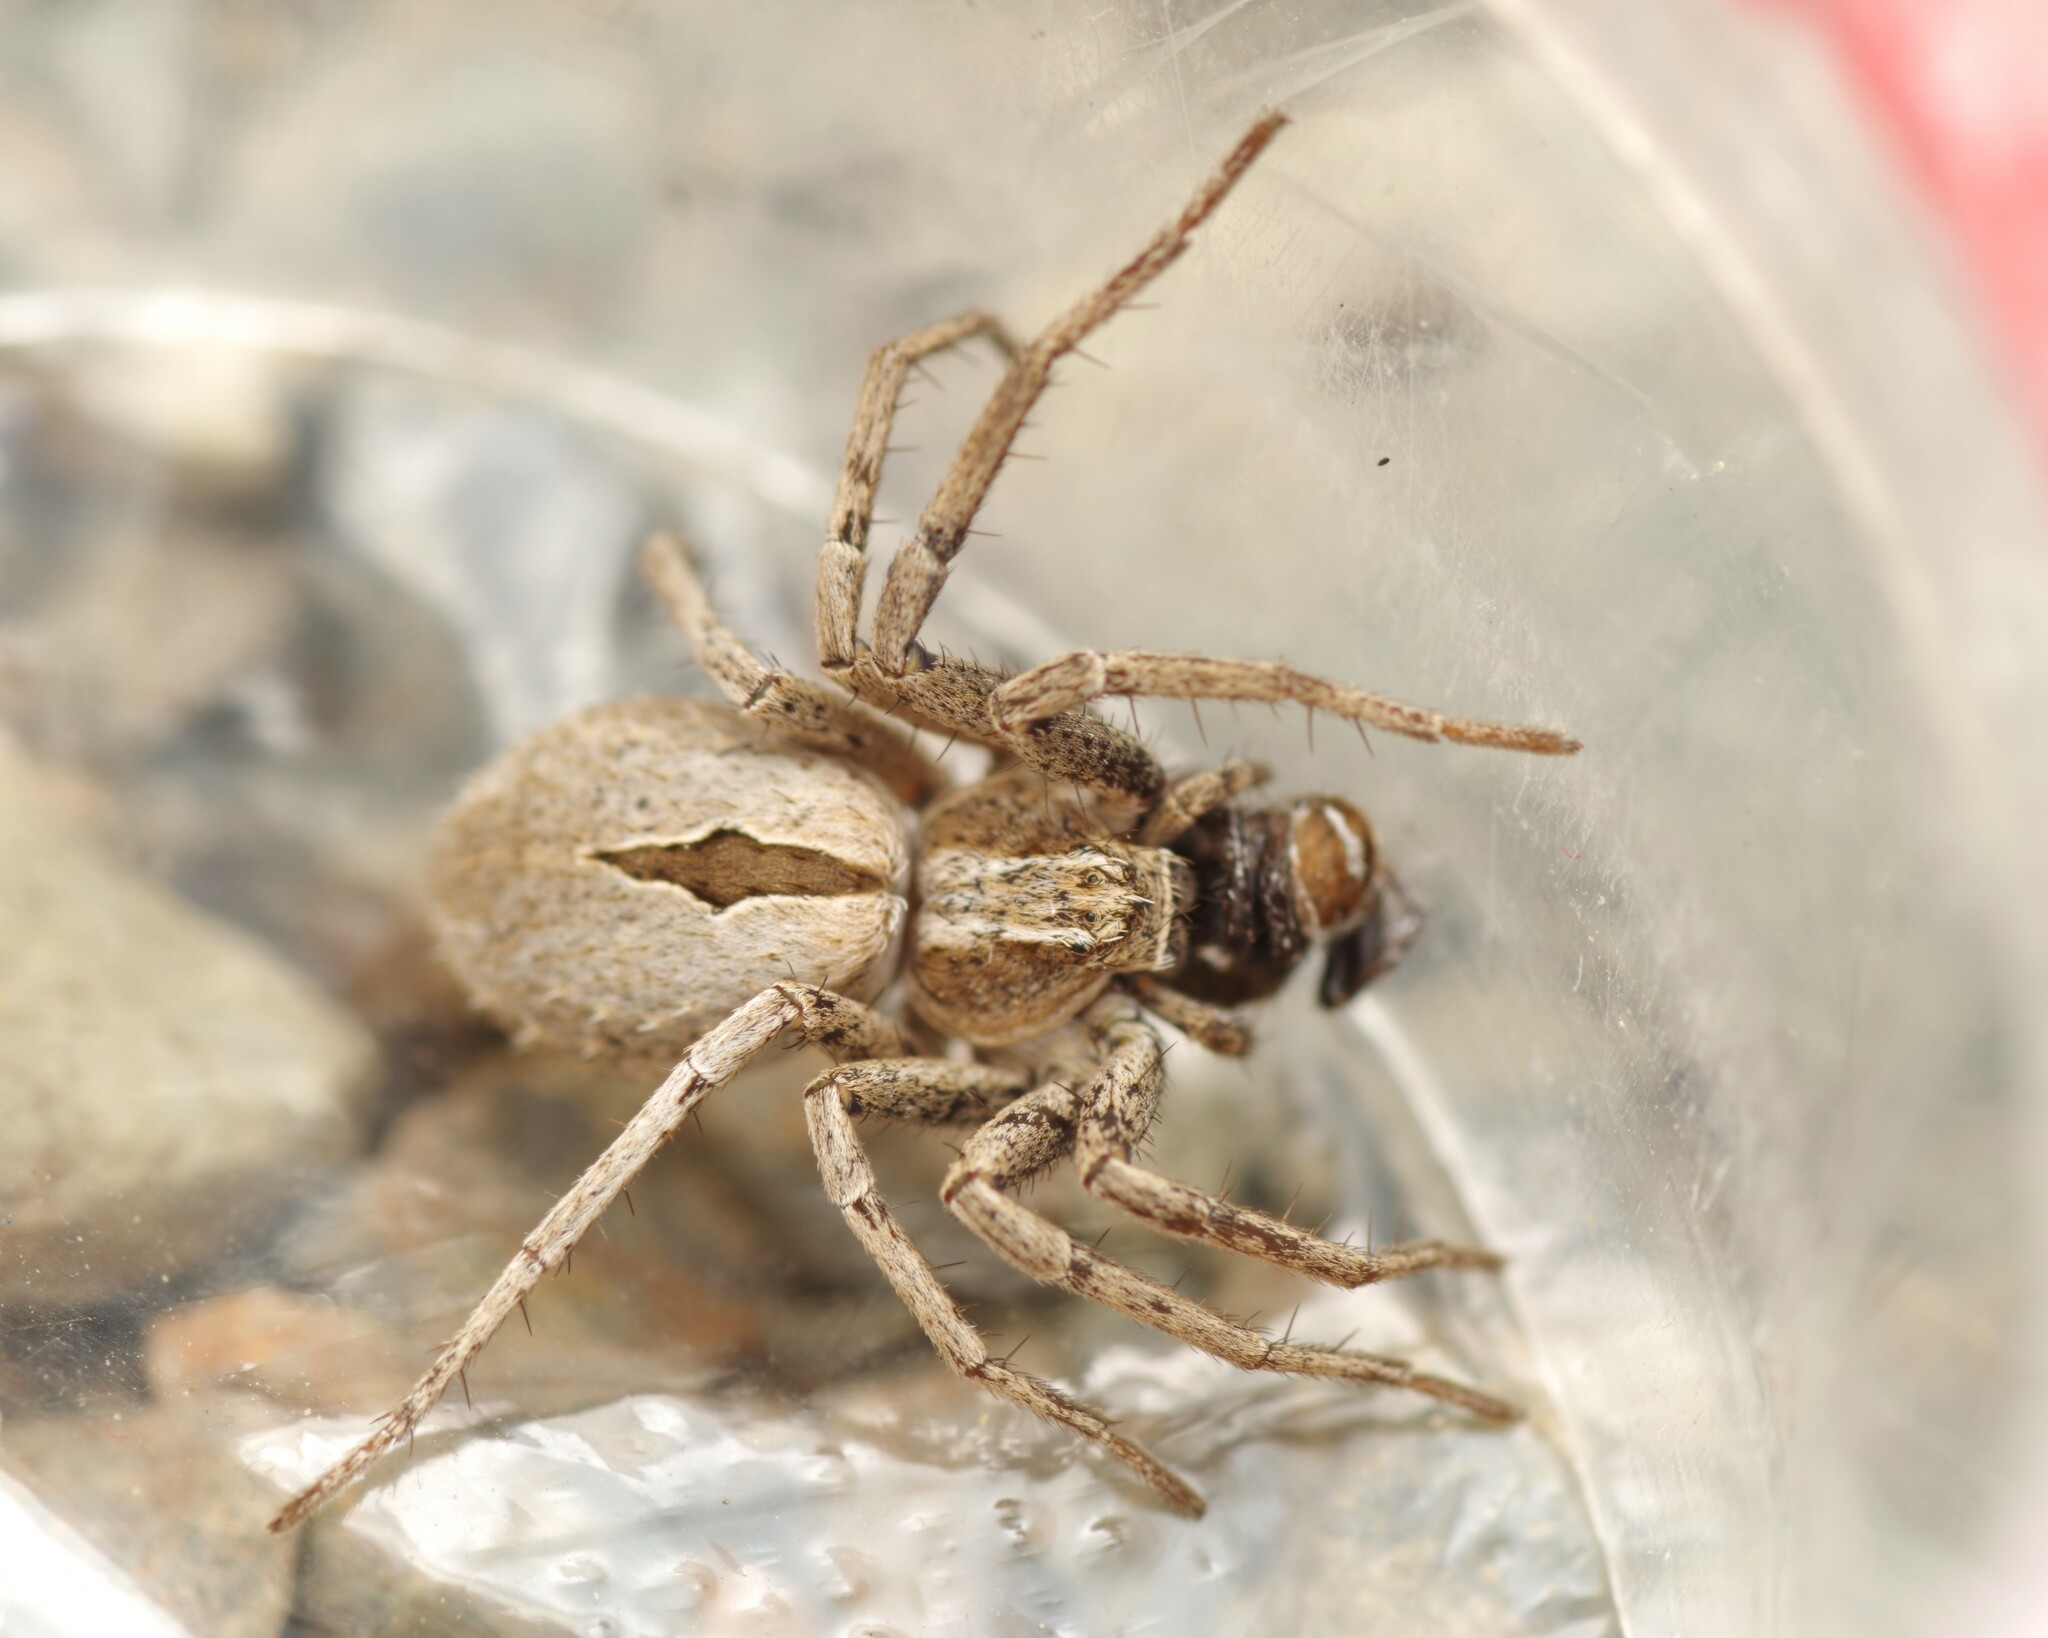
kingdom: Animalia
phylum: Arthropoda
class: Arachnida
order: Araneae
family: Philodromidae
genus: Thanatus
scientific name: Thanatus
